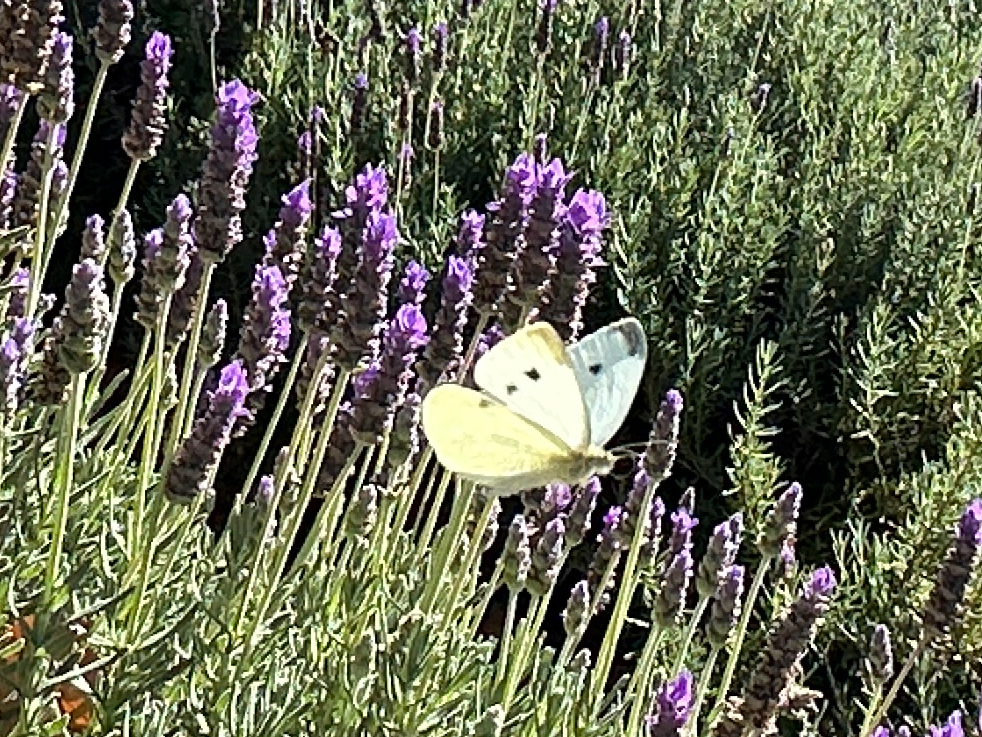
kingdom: Animalia
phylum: Arthropoda
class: Insecta
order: Lepidoptera
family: Pieridae
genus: Pieris
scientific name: Pieris rapae
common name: Small white
